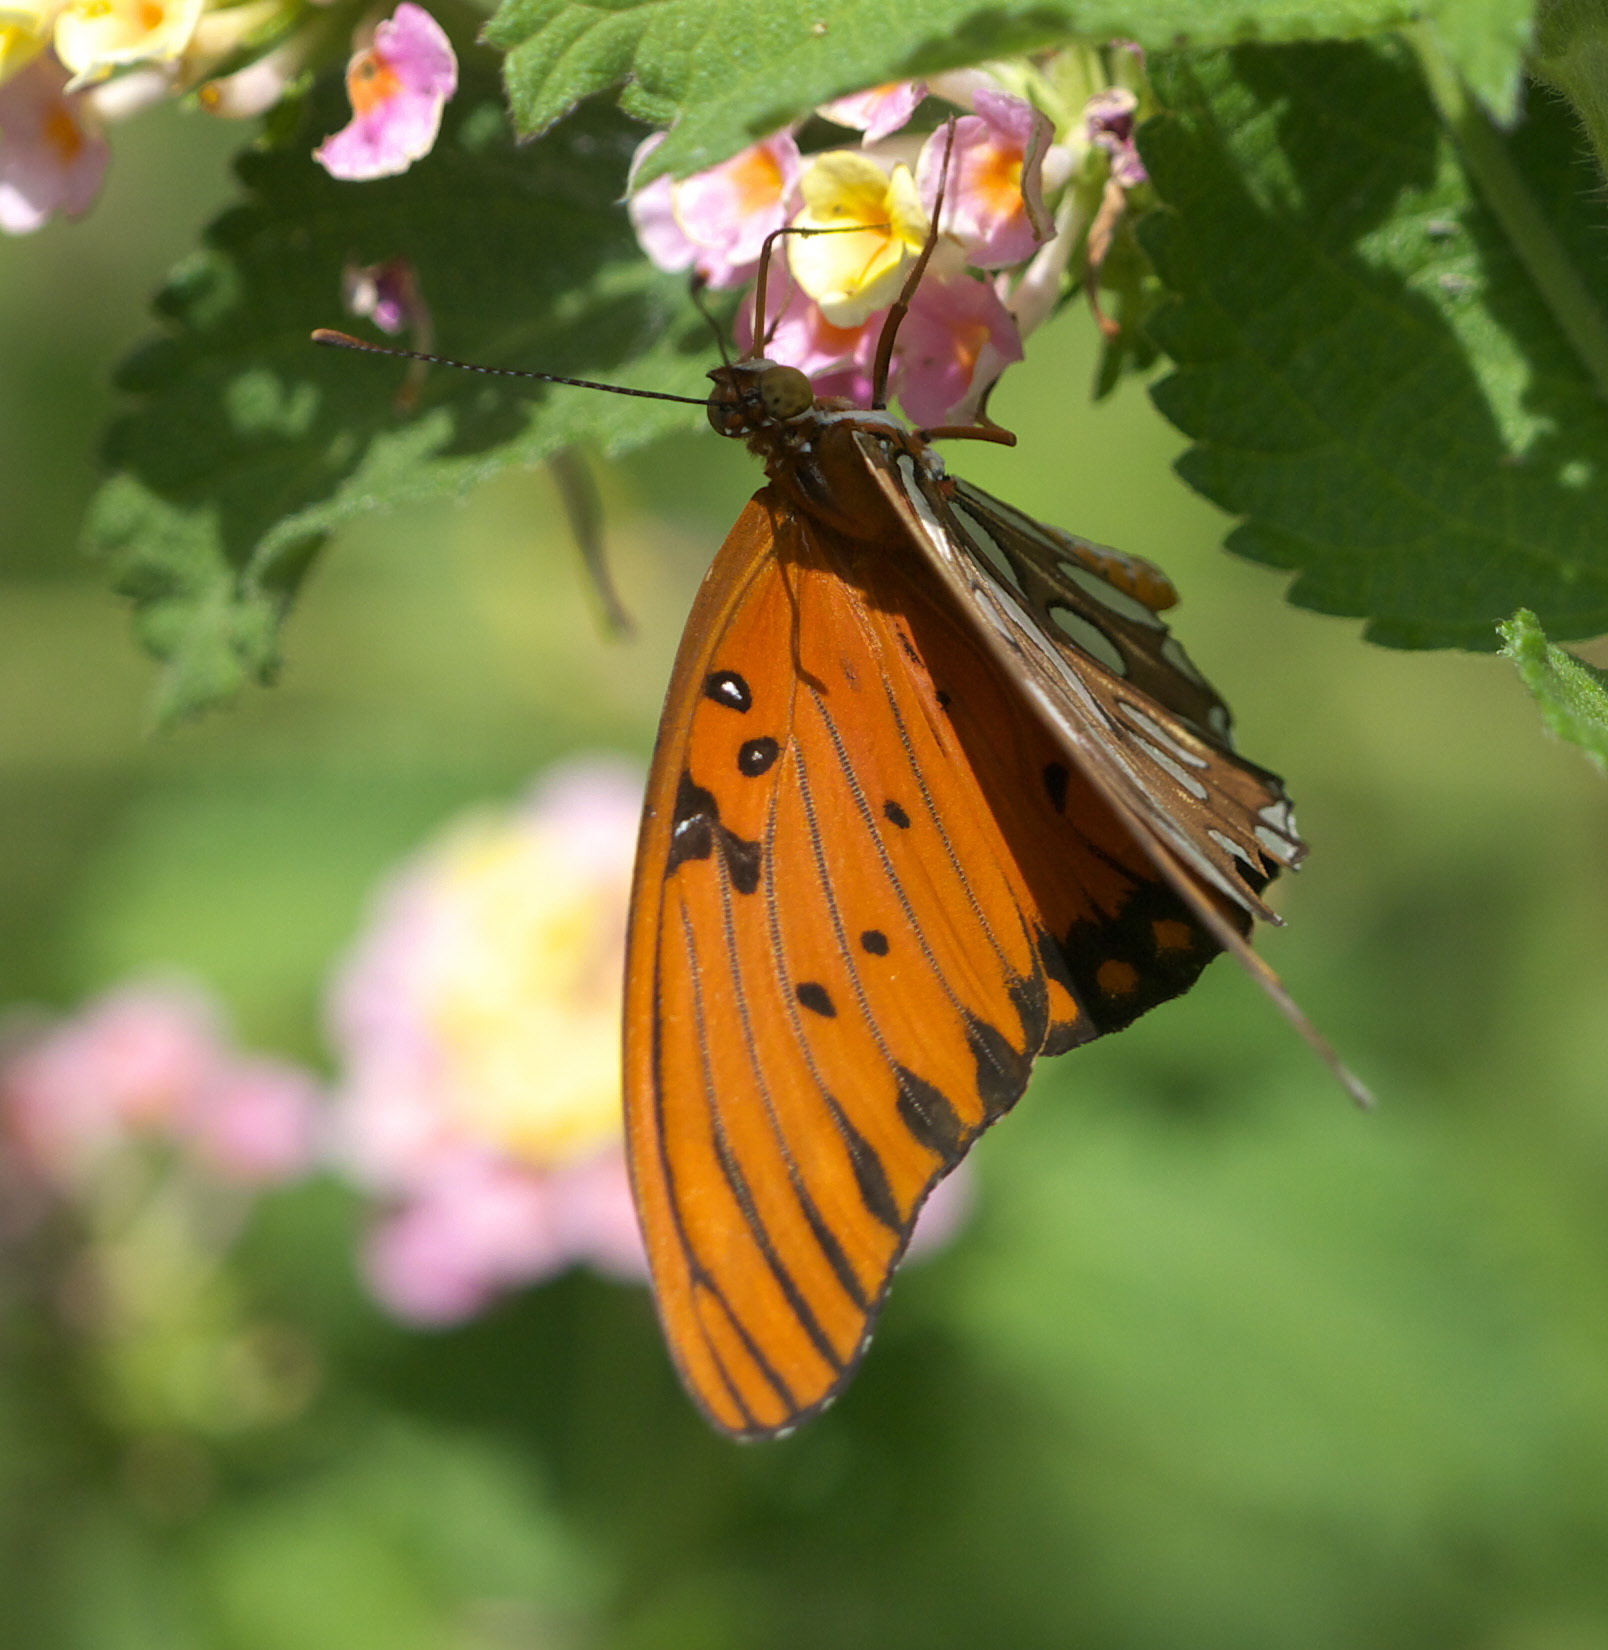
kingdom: Animalia
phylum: Arthropoda
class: Insecta
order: Lepidoptera
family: Nymphalidae
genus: Dione
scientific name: Dione vanillae
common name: Gulf fritillary
